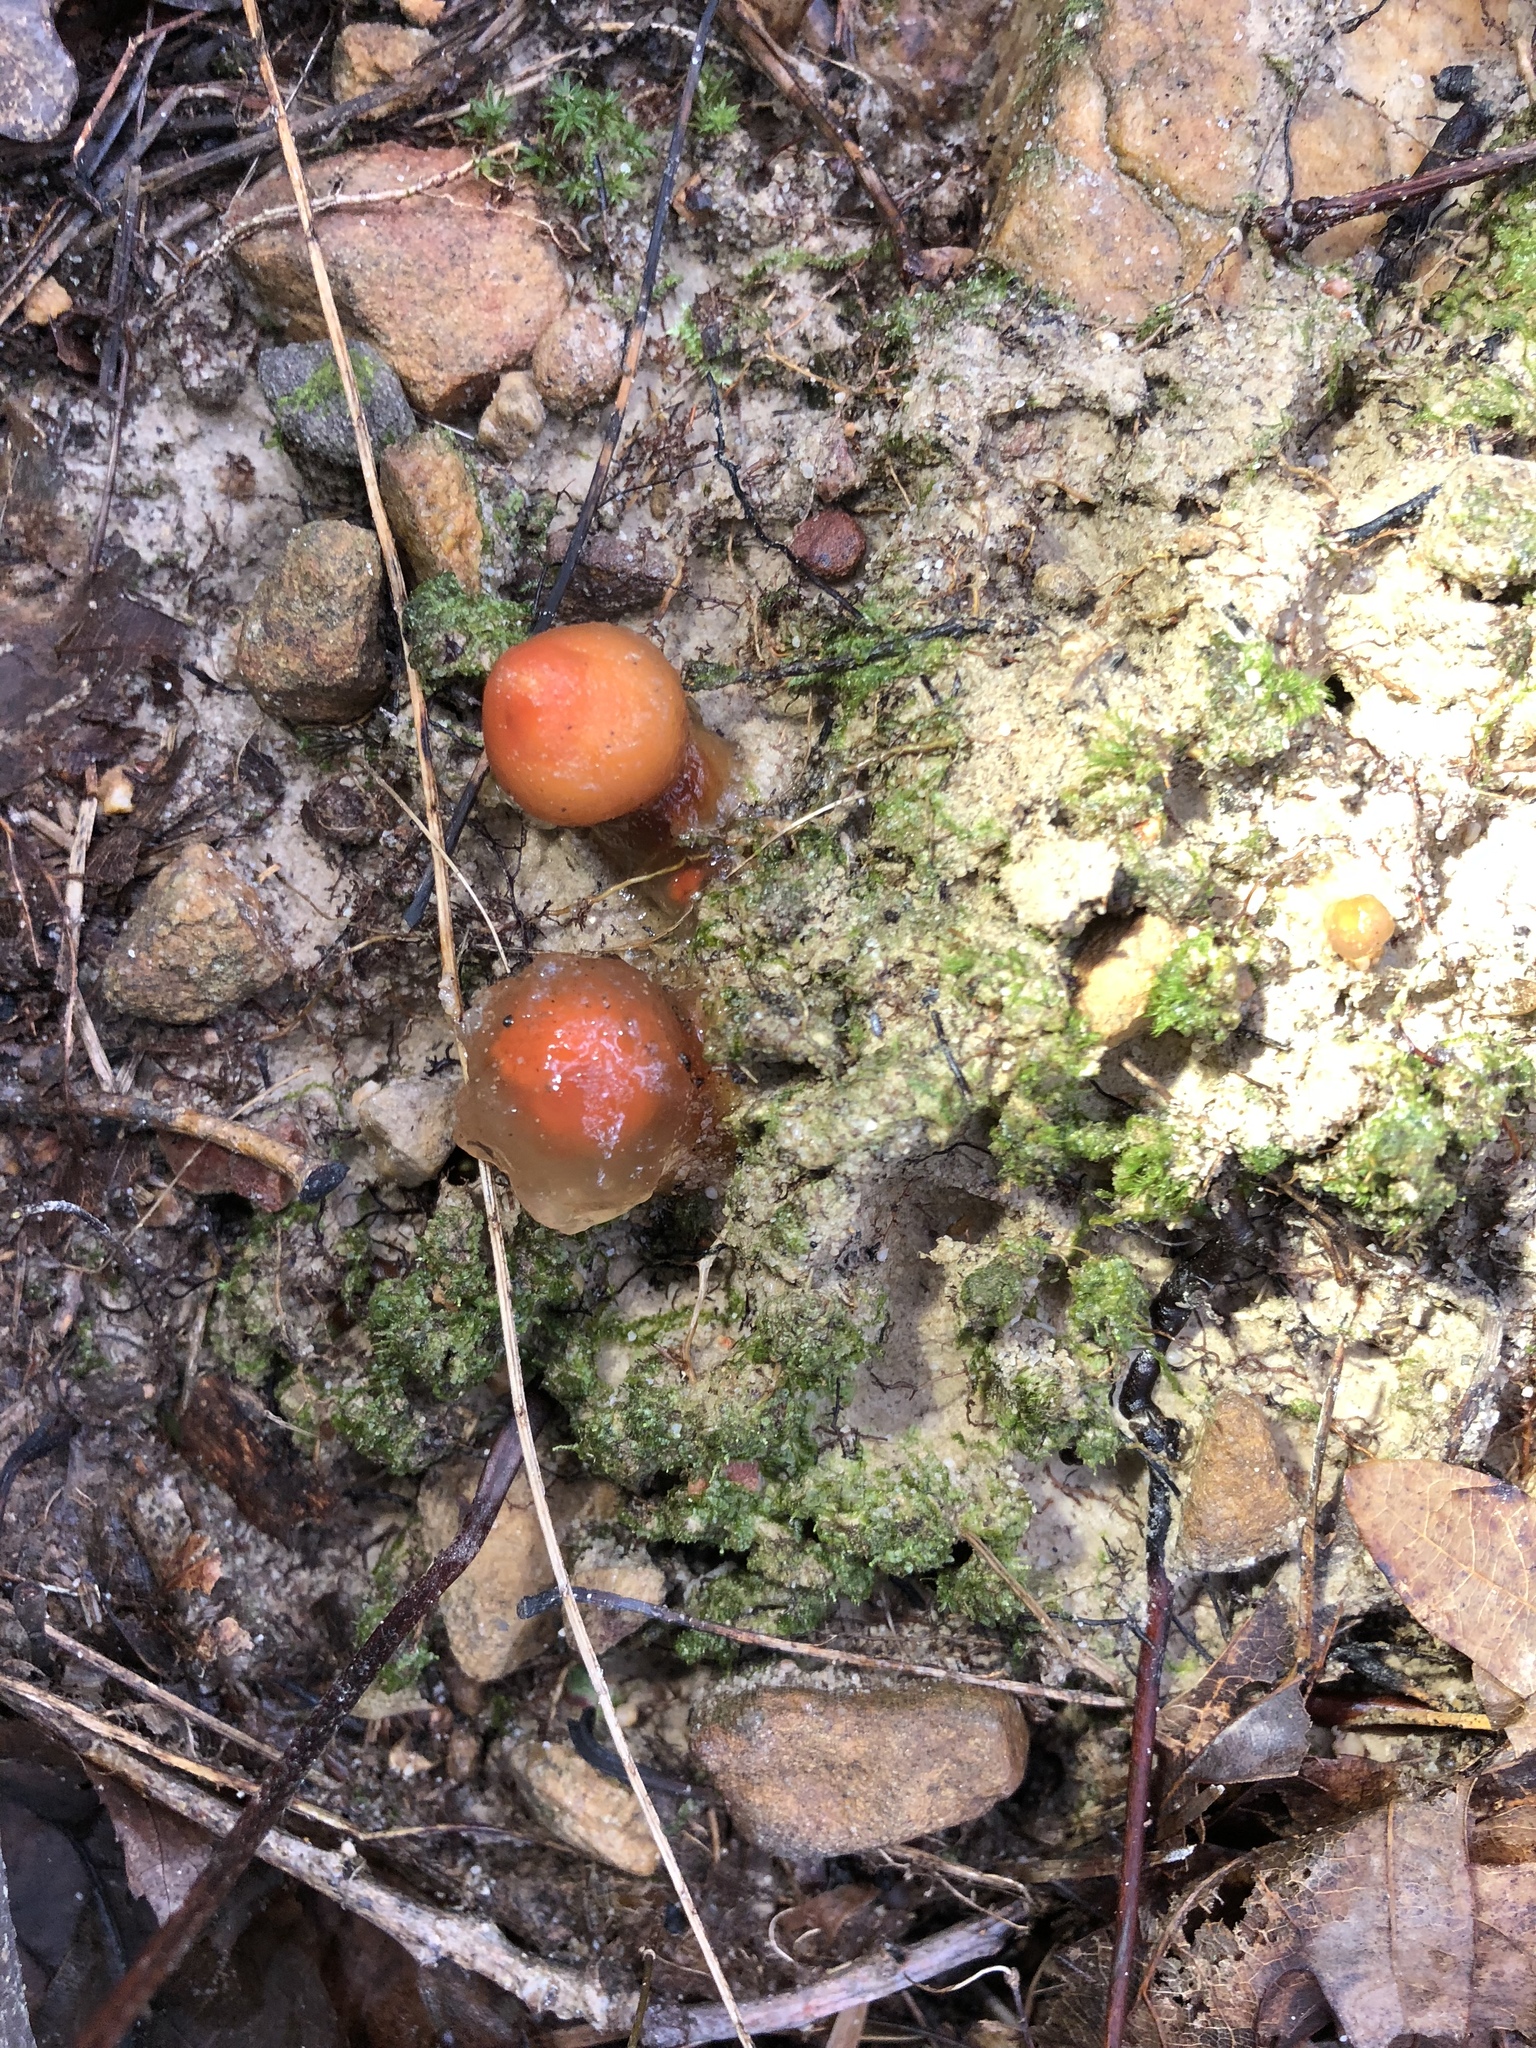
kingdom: Fungi
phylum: Basidiomycota
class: Agaricomycetes
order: Boletales
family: Calostomataceae
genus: Calostoma
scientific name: Calostoma cinnabarinum
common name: Stalked puffball-in-aspic
